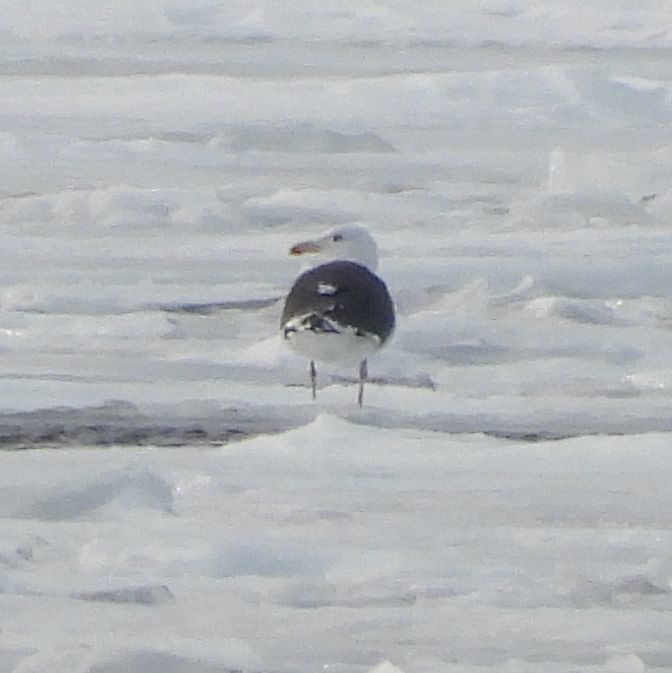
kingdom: Animalia
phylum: Chordata
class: Aves
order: Charadriiformes
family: Laridae
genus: Larus
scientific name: Larus marinus
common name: Great black-backed gull
